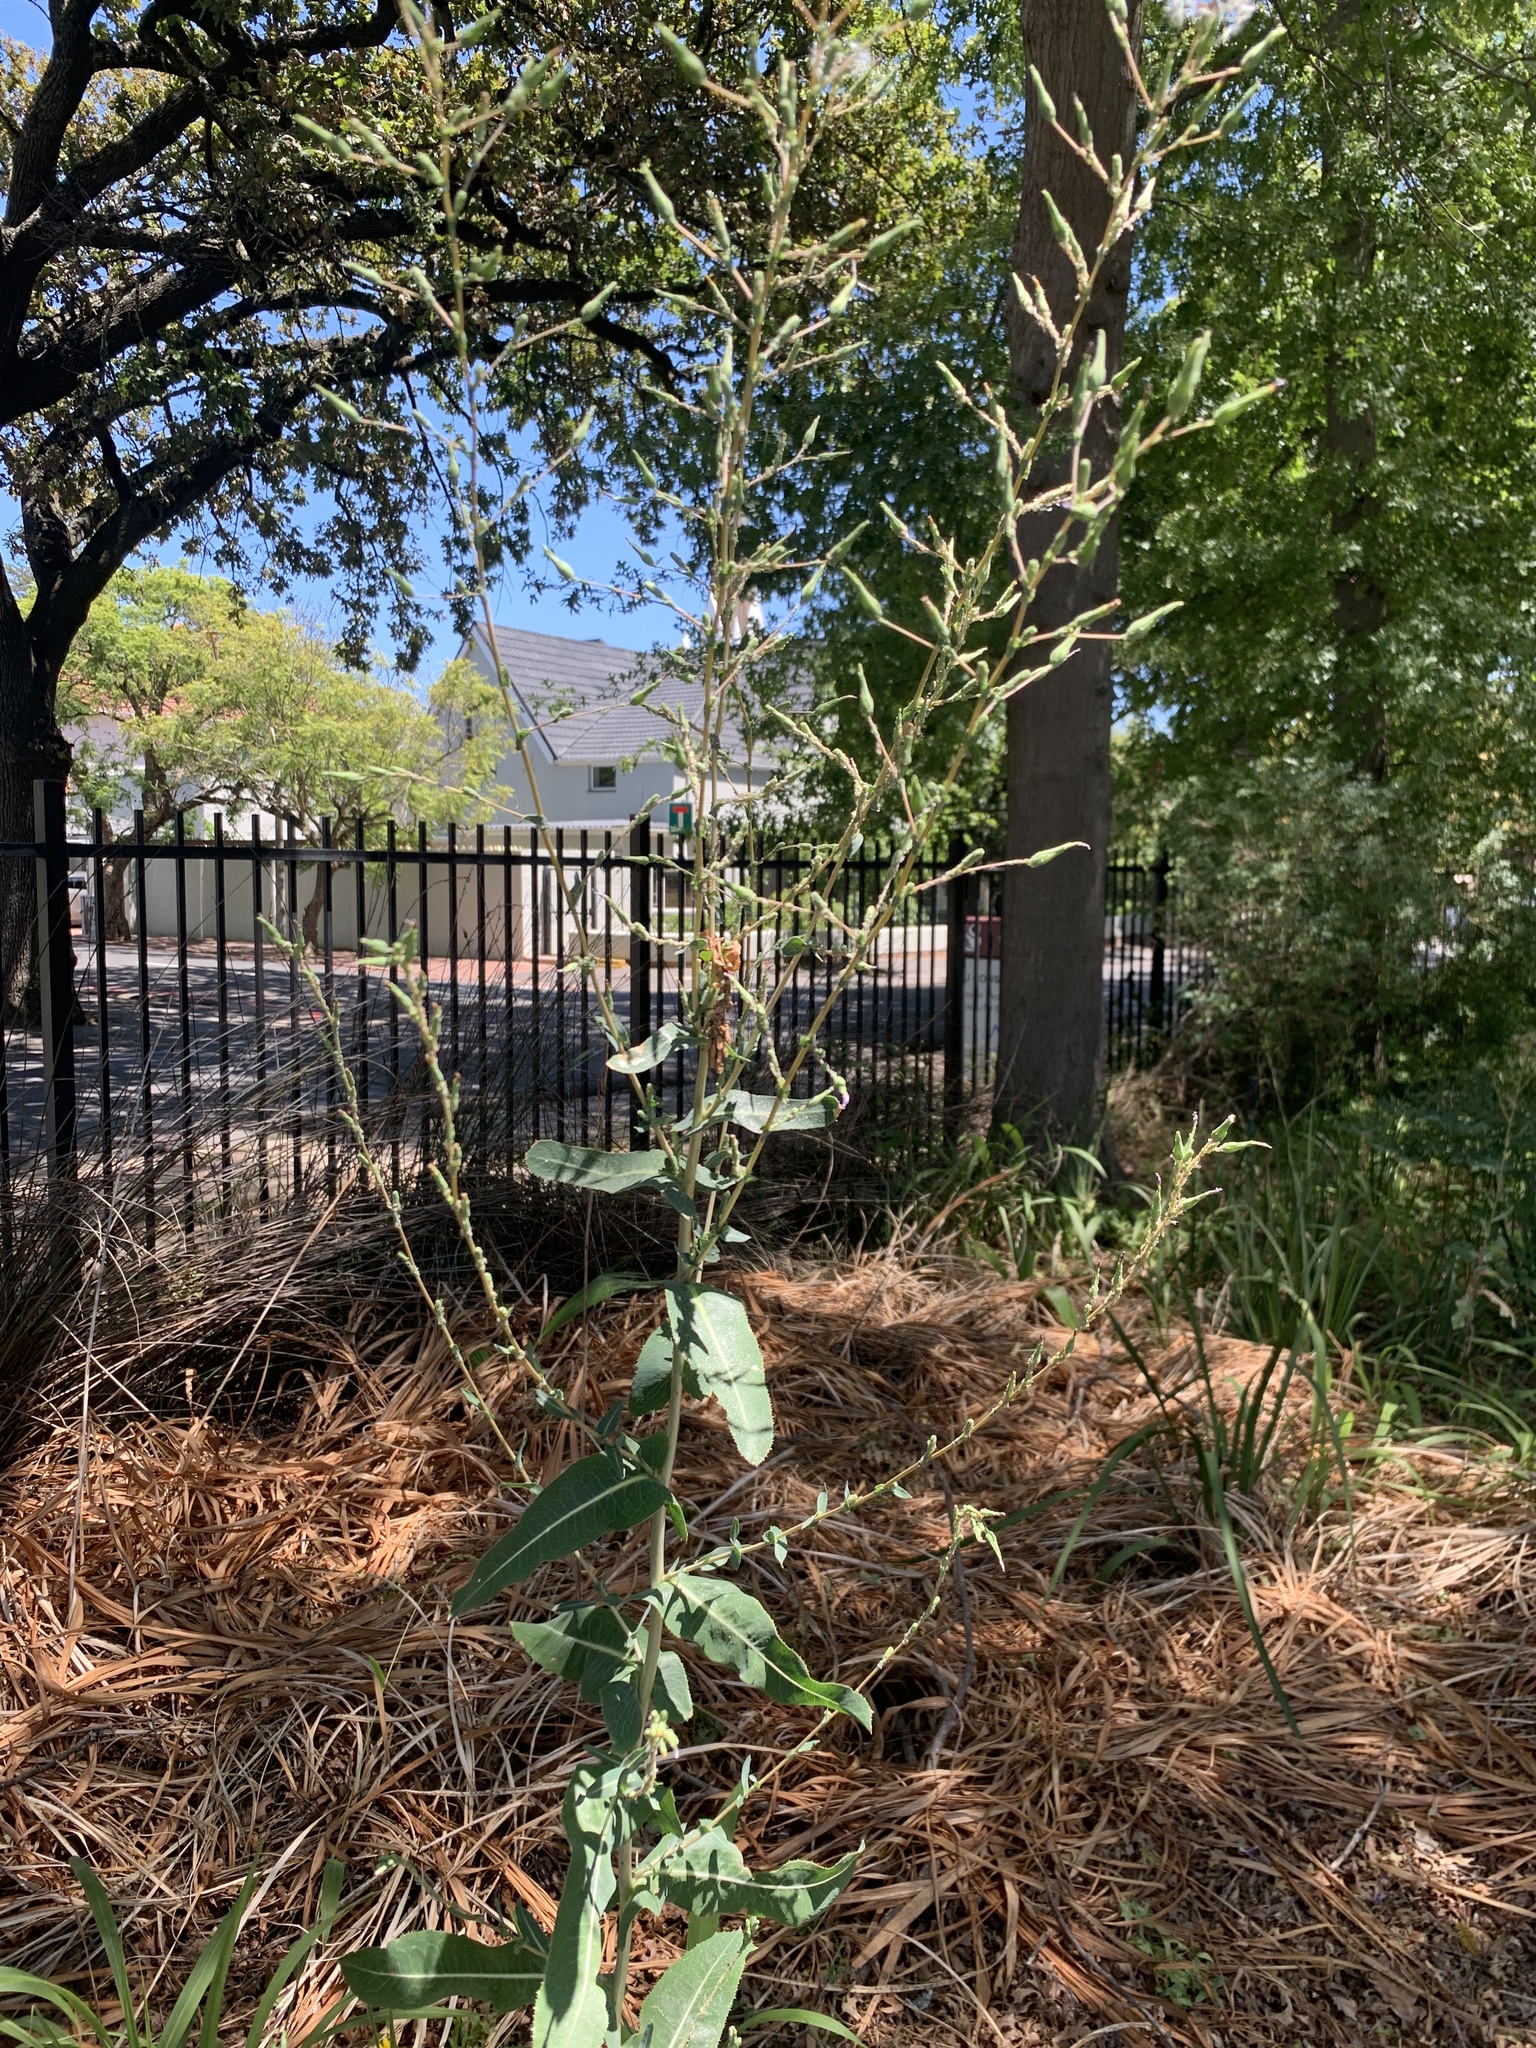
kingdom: Plantae
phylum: Tracheophyta
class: Magnoliopsida
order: Asterales
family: Asteraceae
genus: Lactuca
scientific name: Lactuca serriola
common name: Prickly lettuce
